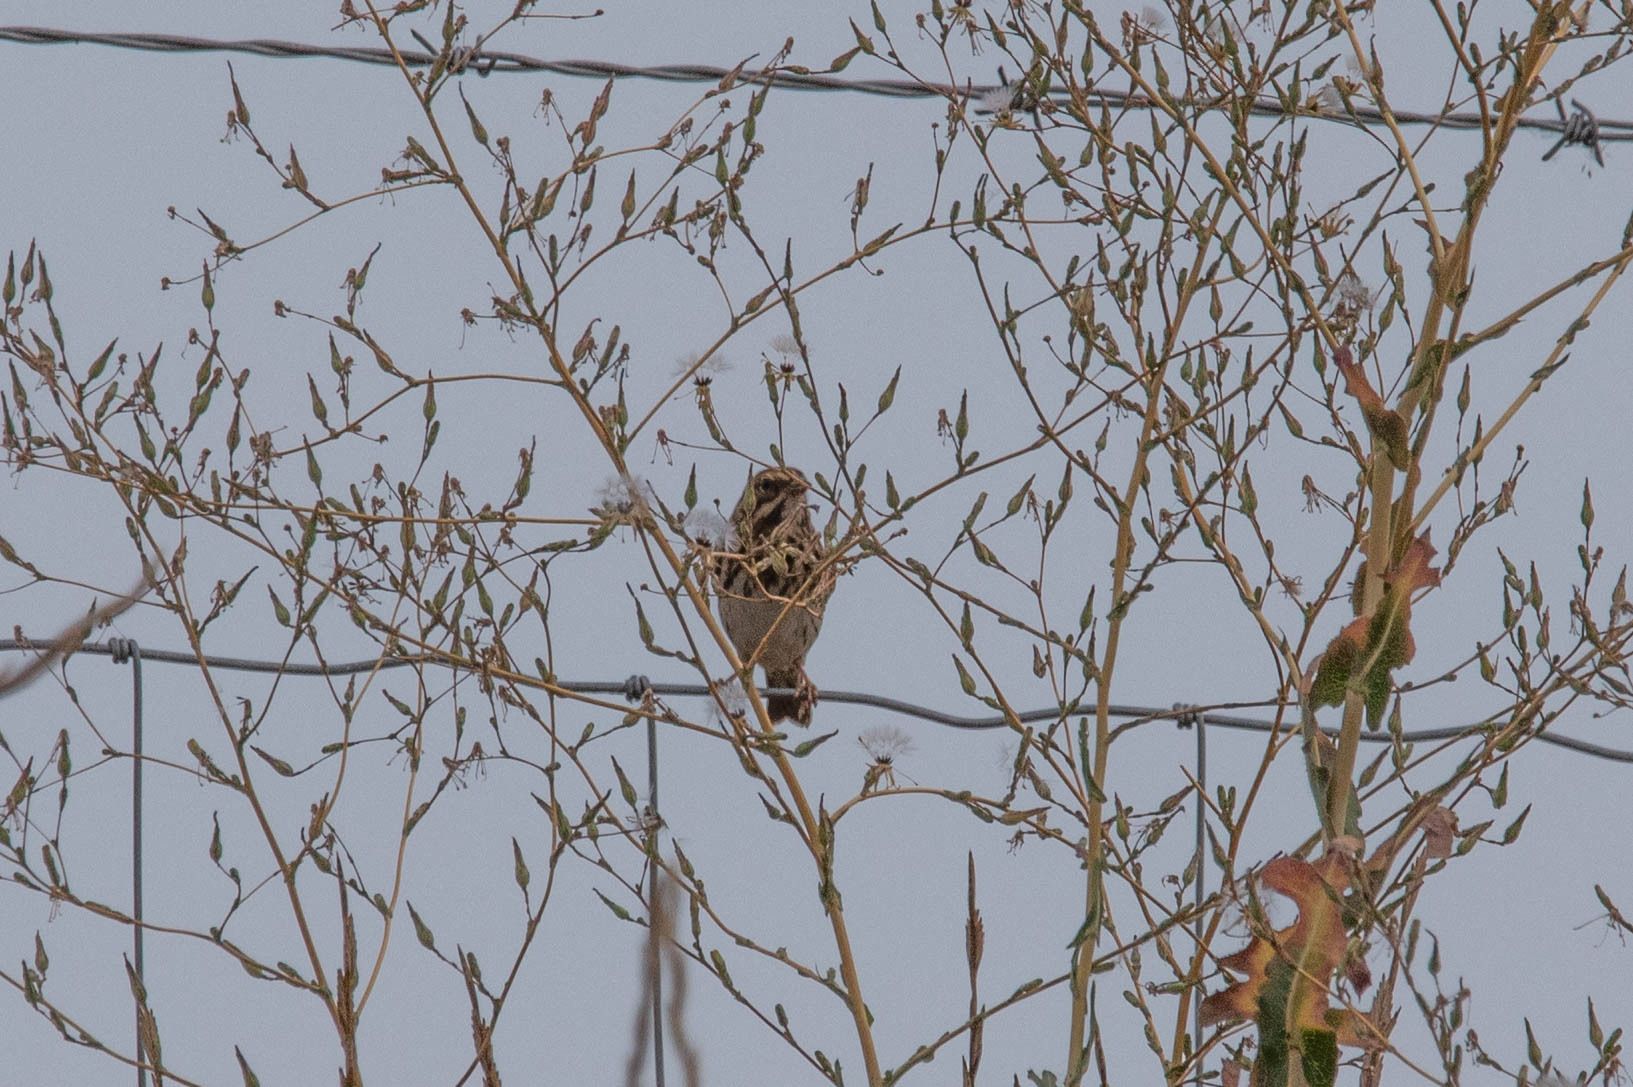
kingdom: Animalia
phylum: Chordata
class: Aves
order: Passeriformes
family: Passerellidae
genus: Passerculus
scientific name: Passerculus sandwichensis
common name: Savannah sparrow
